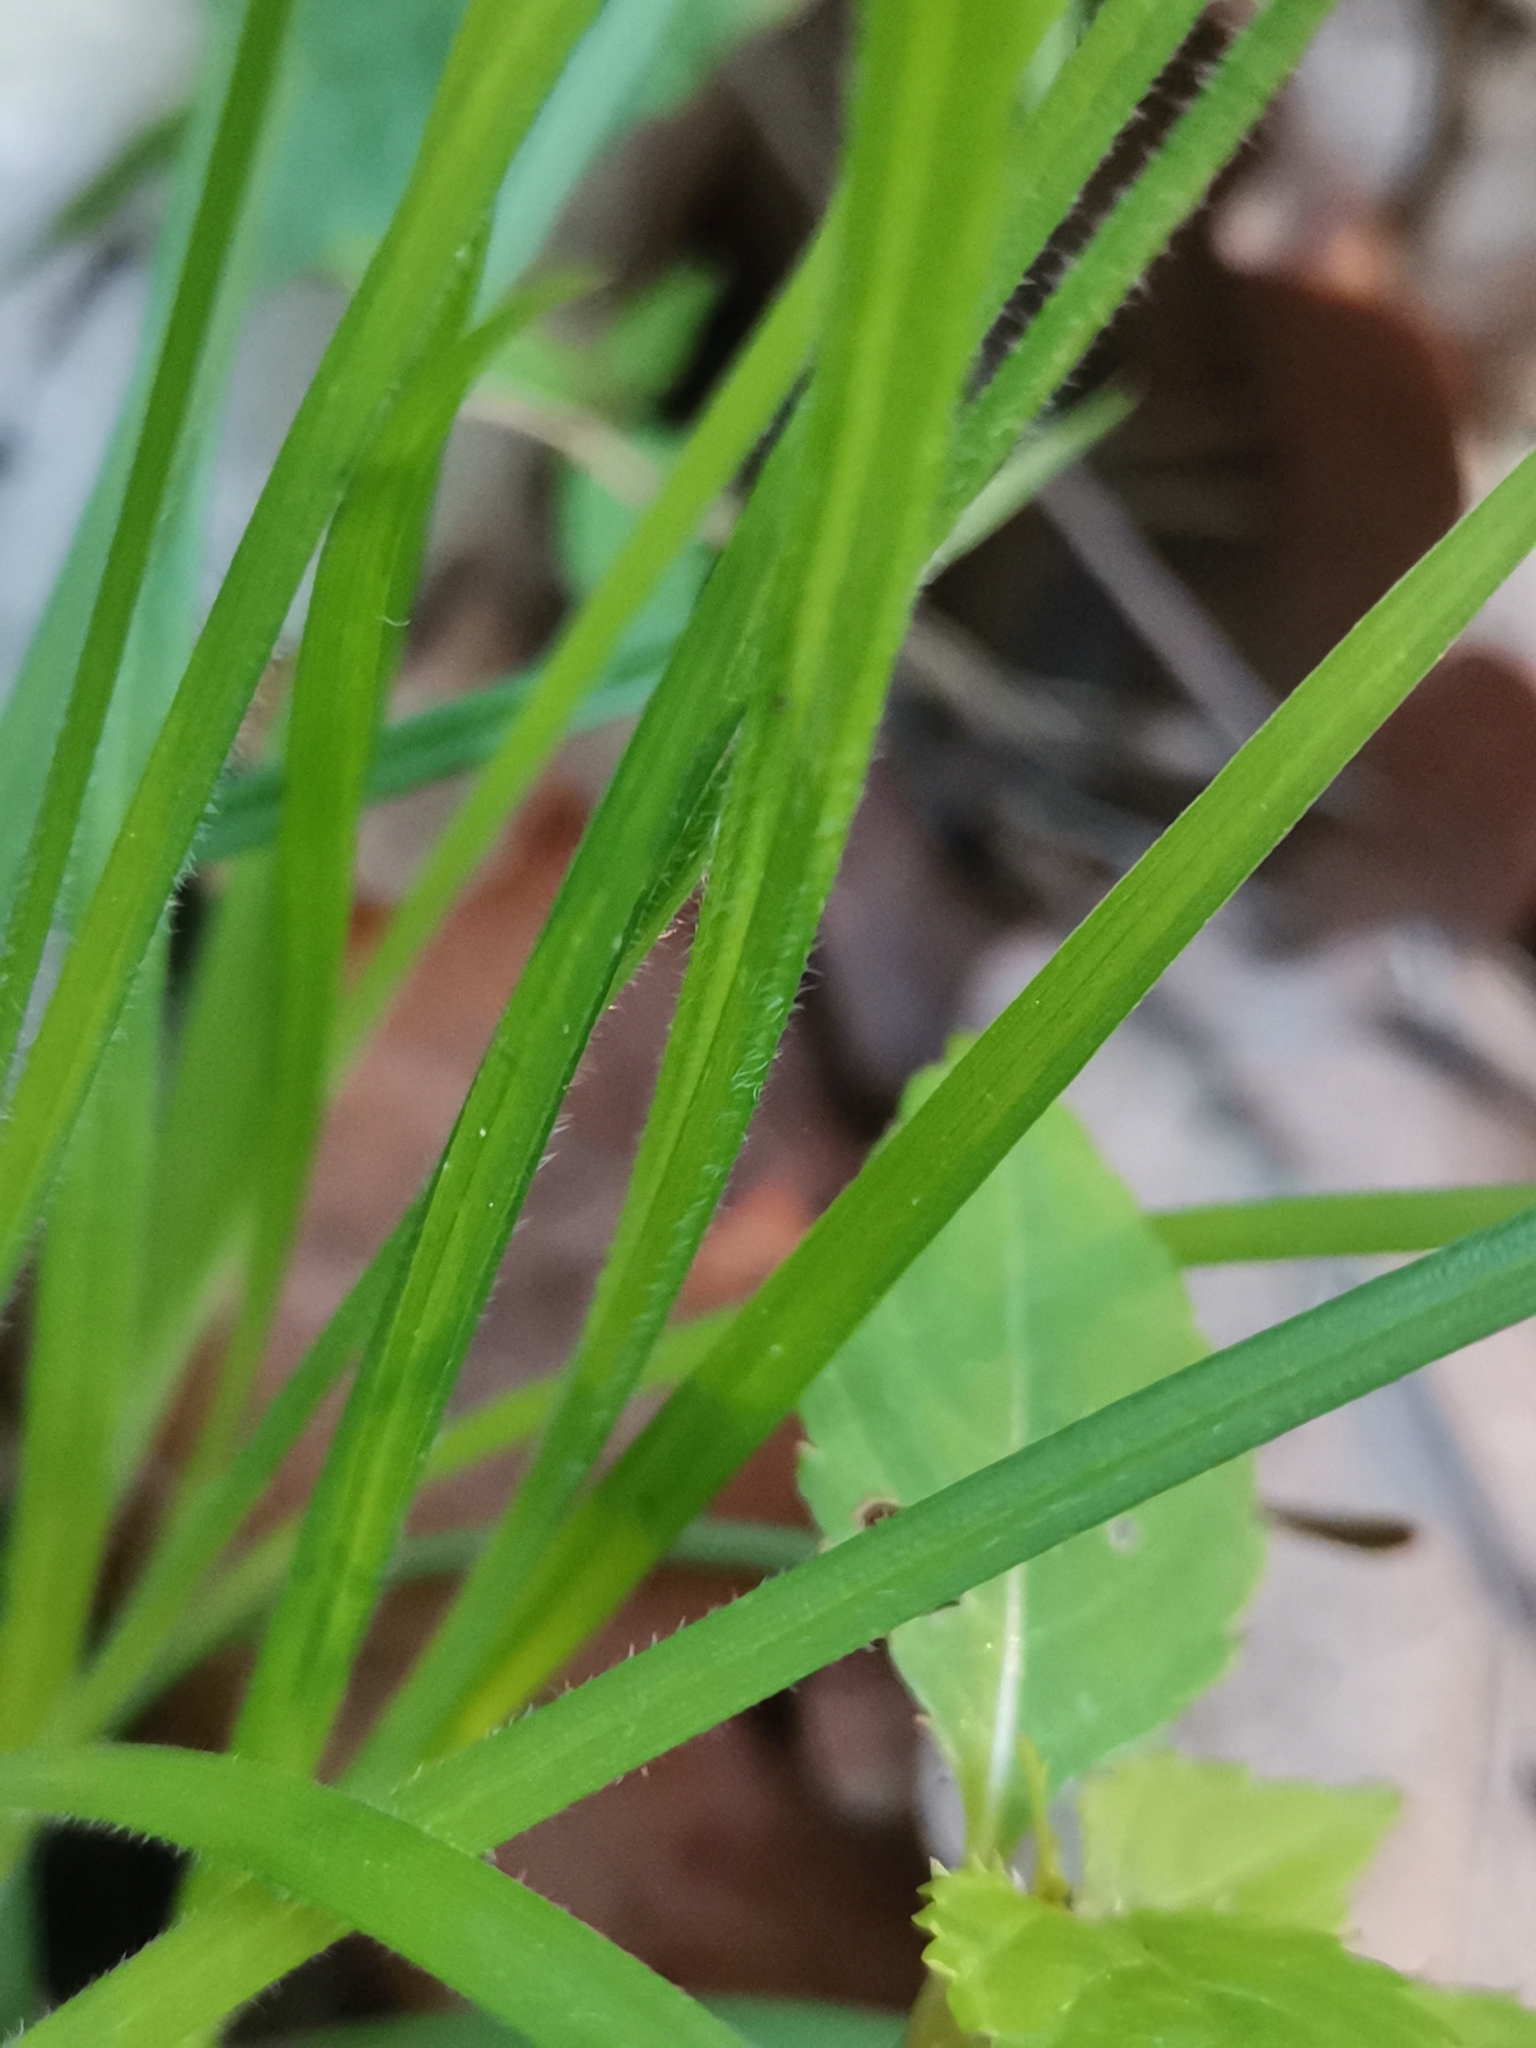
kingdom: Plantae
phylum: Tracheophyta
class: Liliopsida
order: Poales
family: Cyperaceae
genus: Carex
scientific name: Carex pallescens
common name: Pale sedge
